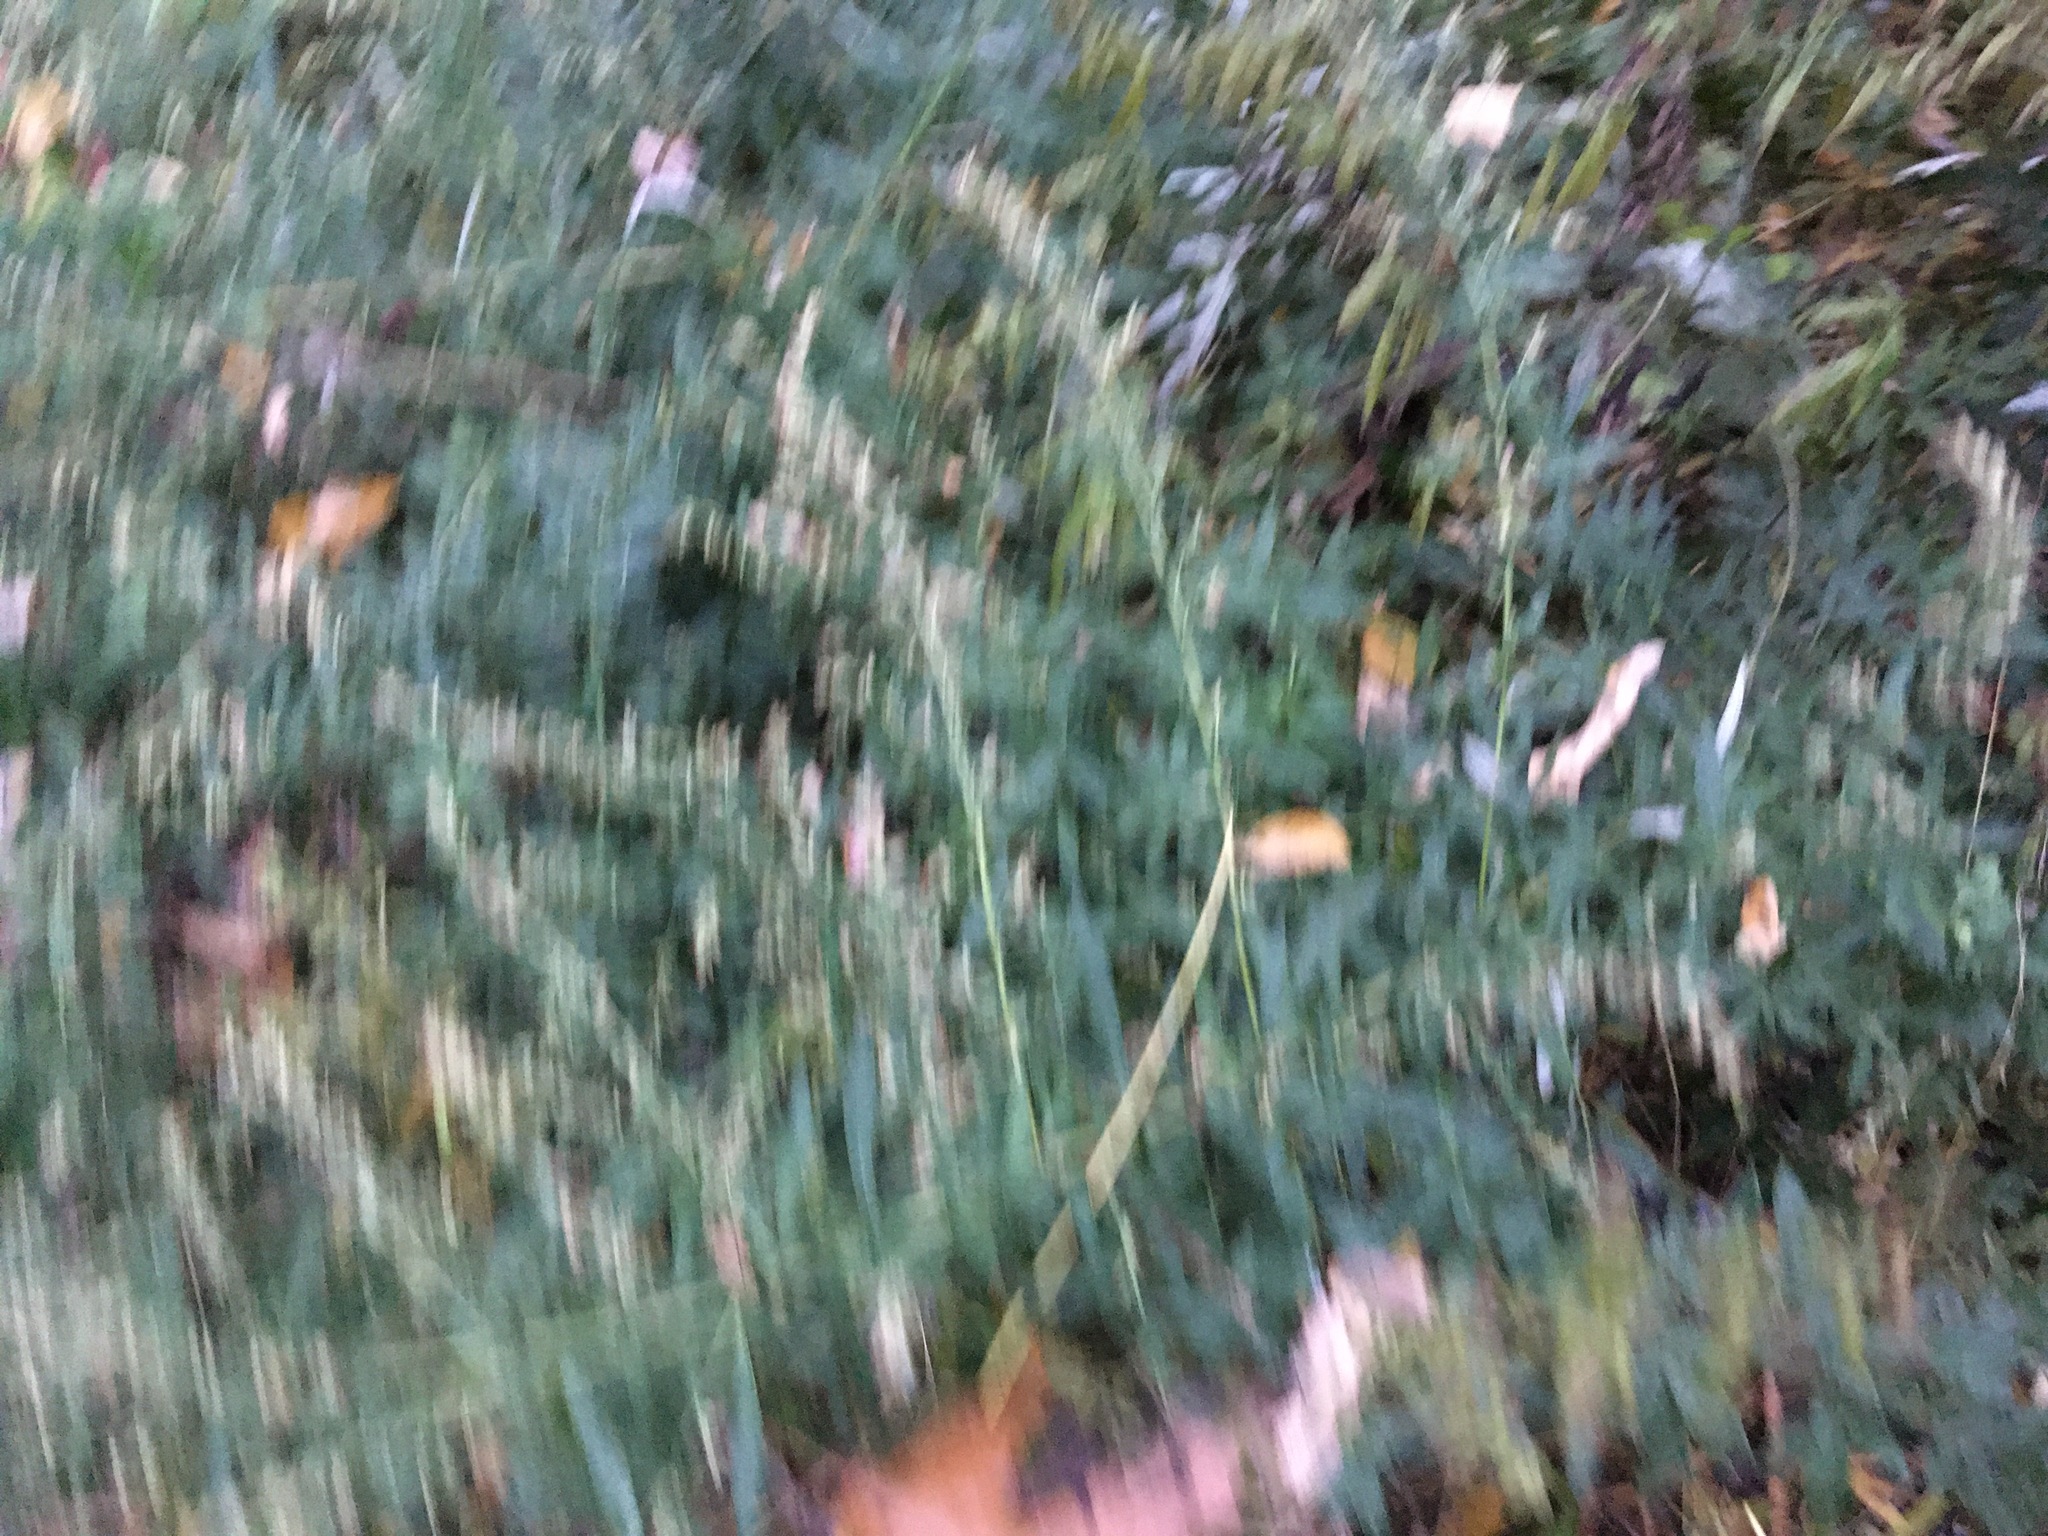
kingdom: Plantae
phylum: Tracheophyta
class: Magnoliopsida
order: Asterales
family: Asteraceae
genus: Artemisia
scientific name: Artemisia vulgaris
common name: Mugwort
